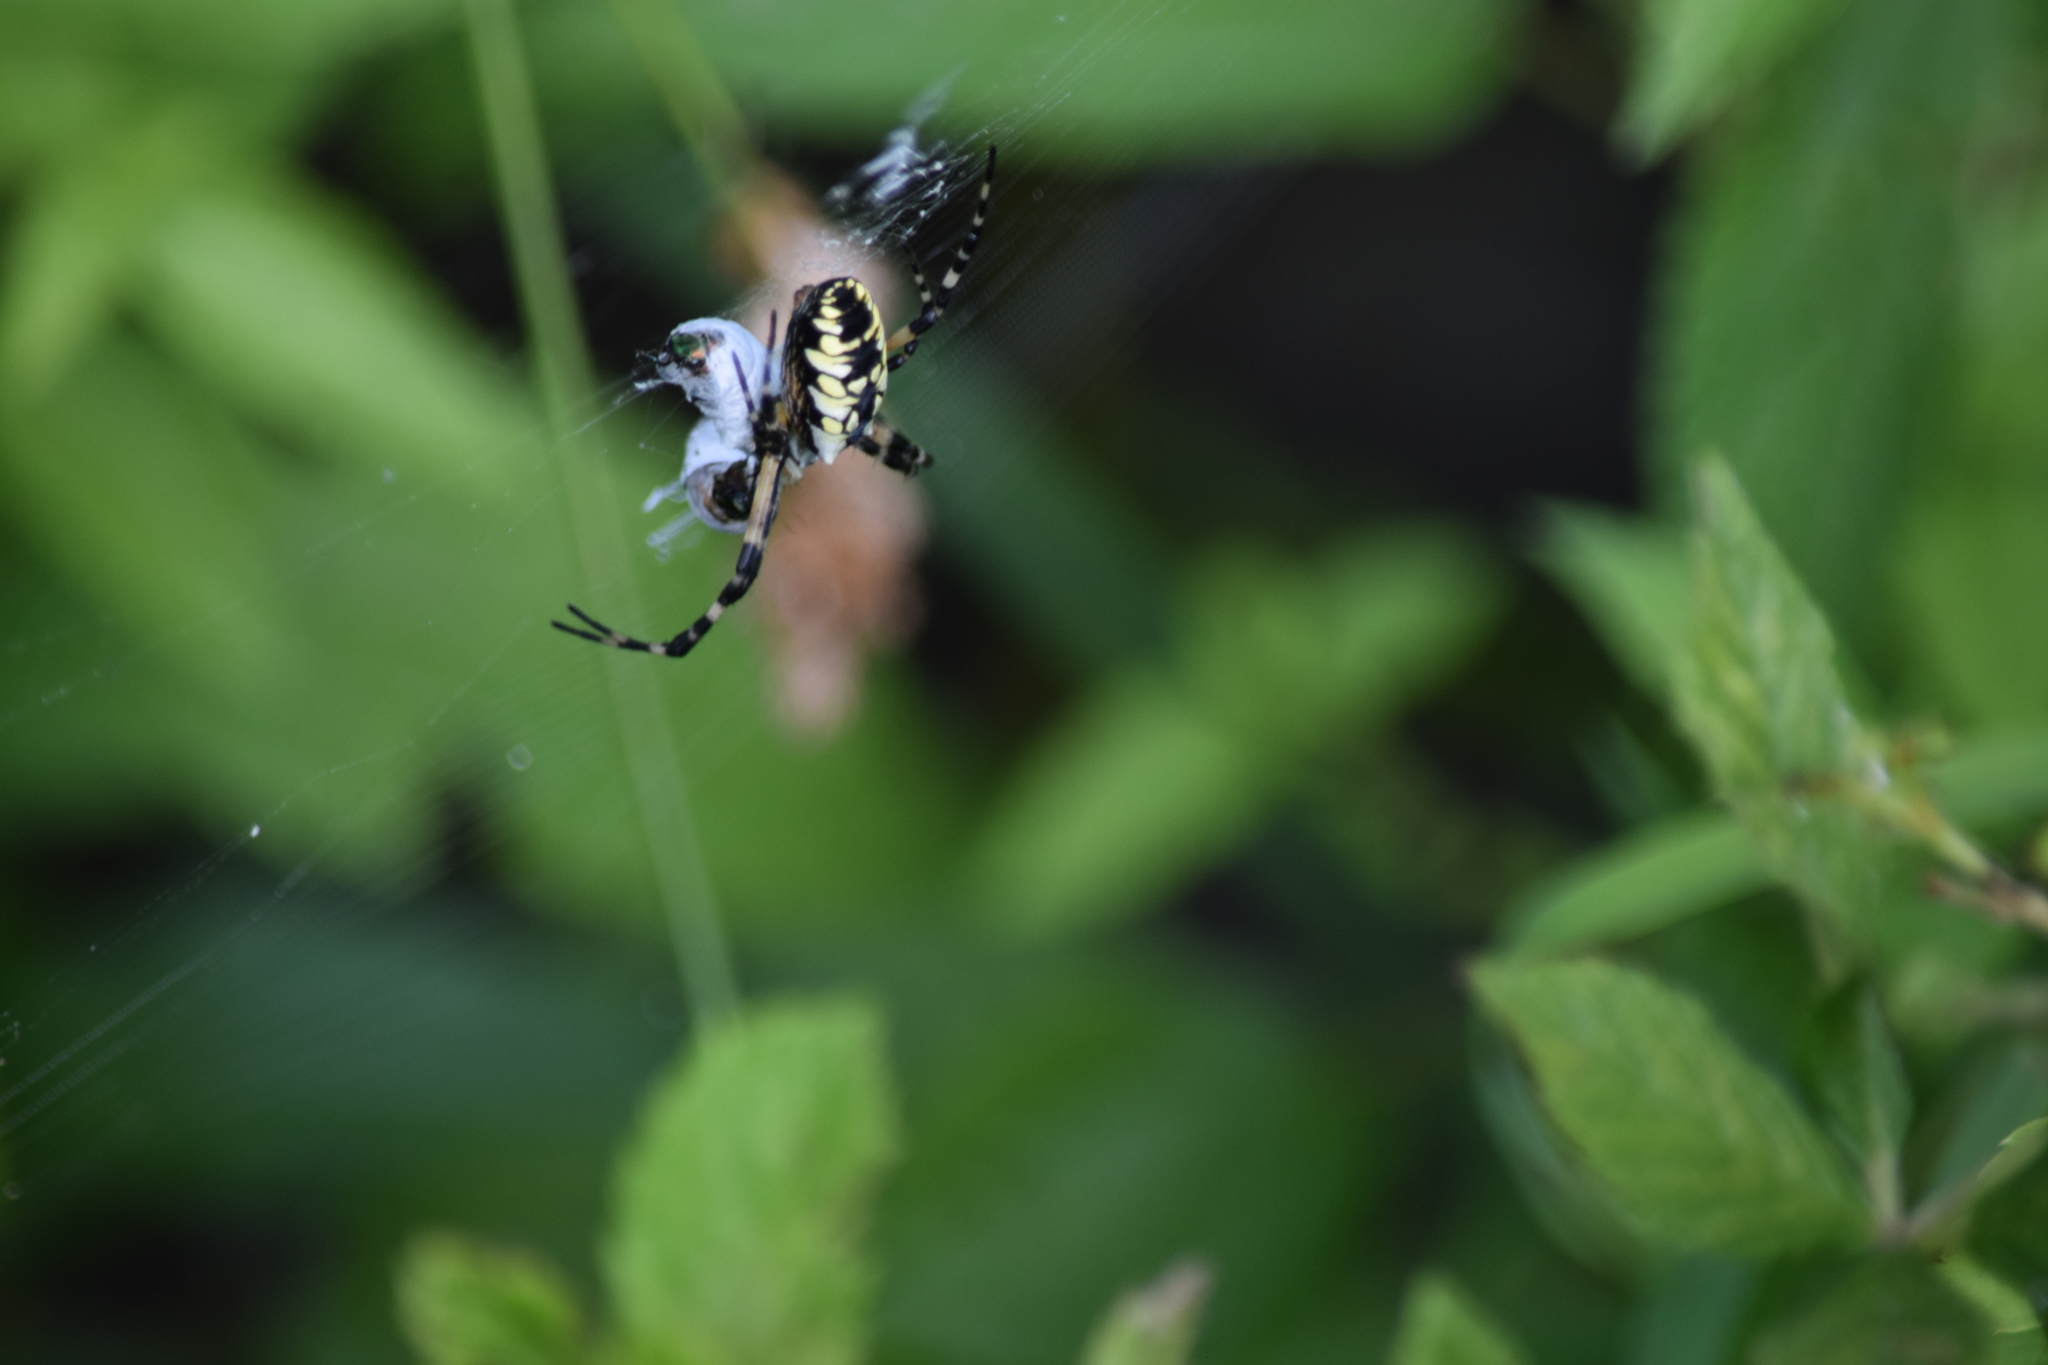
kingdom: Animalia
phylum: Arthropoda
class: Arachnida
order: Araneae
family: Araneidae
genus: Argiope
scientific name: Argiope aurantia
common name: Orb weavers
